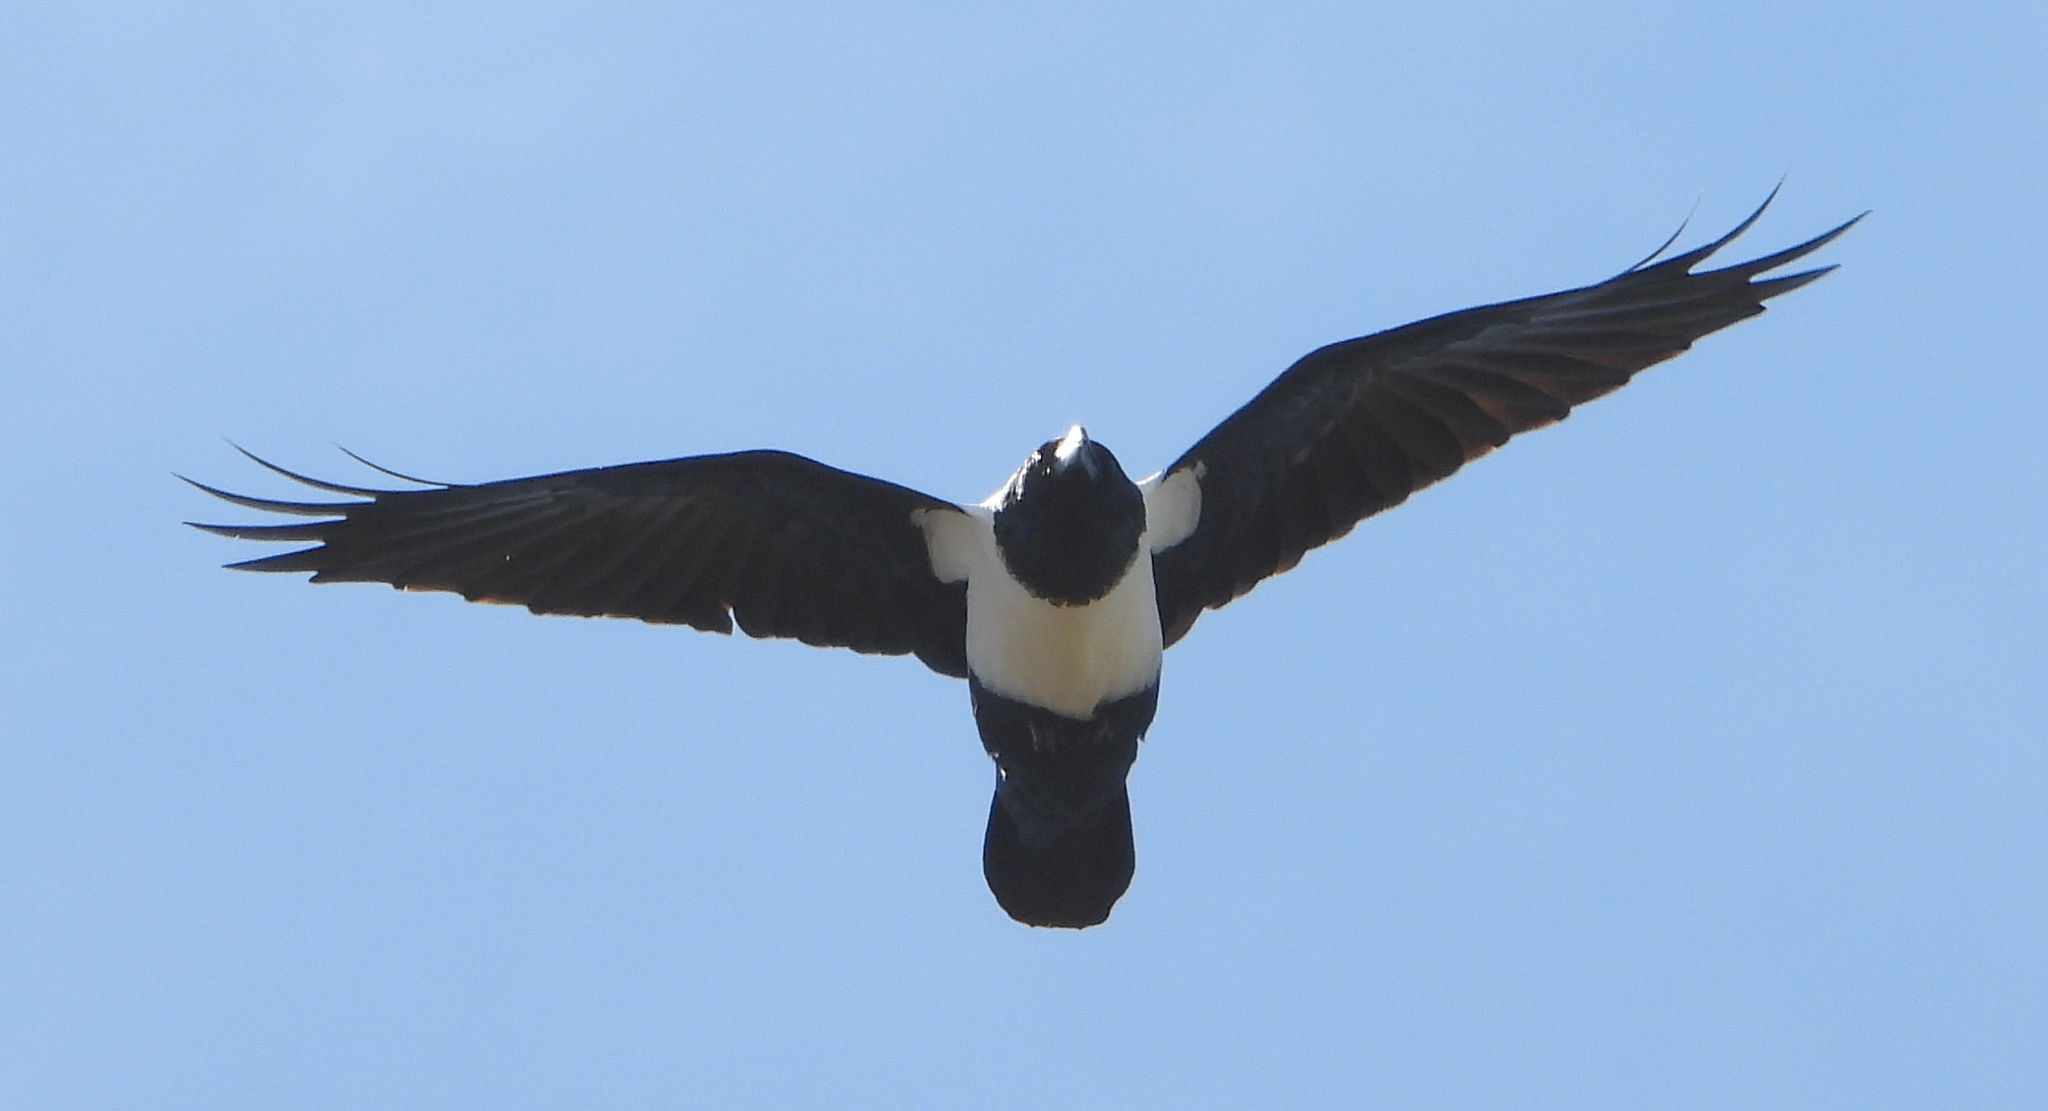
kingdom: Animalia
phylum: Chordata
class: Aves
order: Passeriformes
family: Corvidae
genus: Corvus
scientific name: Corvus albus
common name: Pied crow
